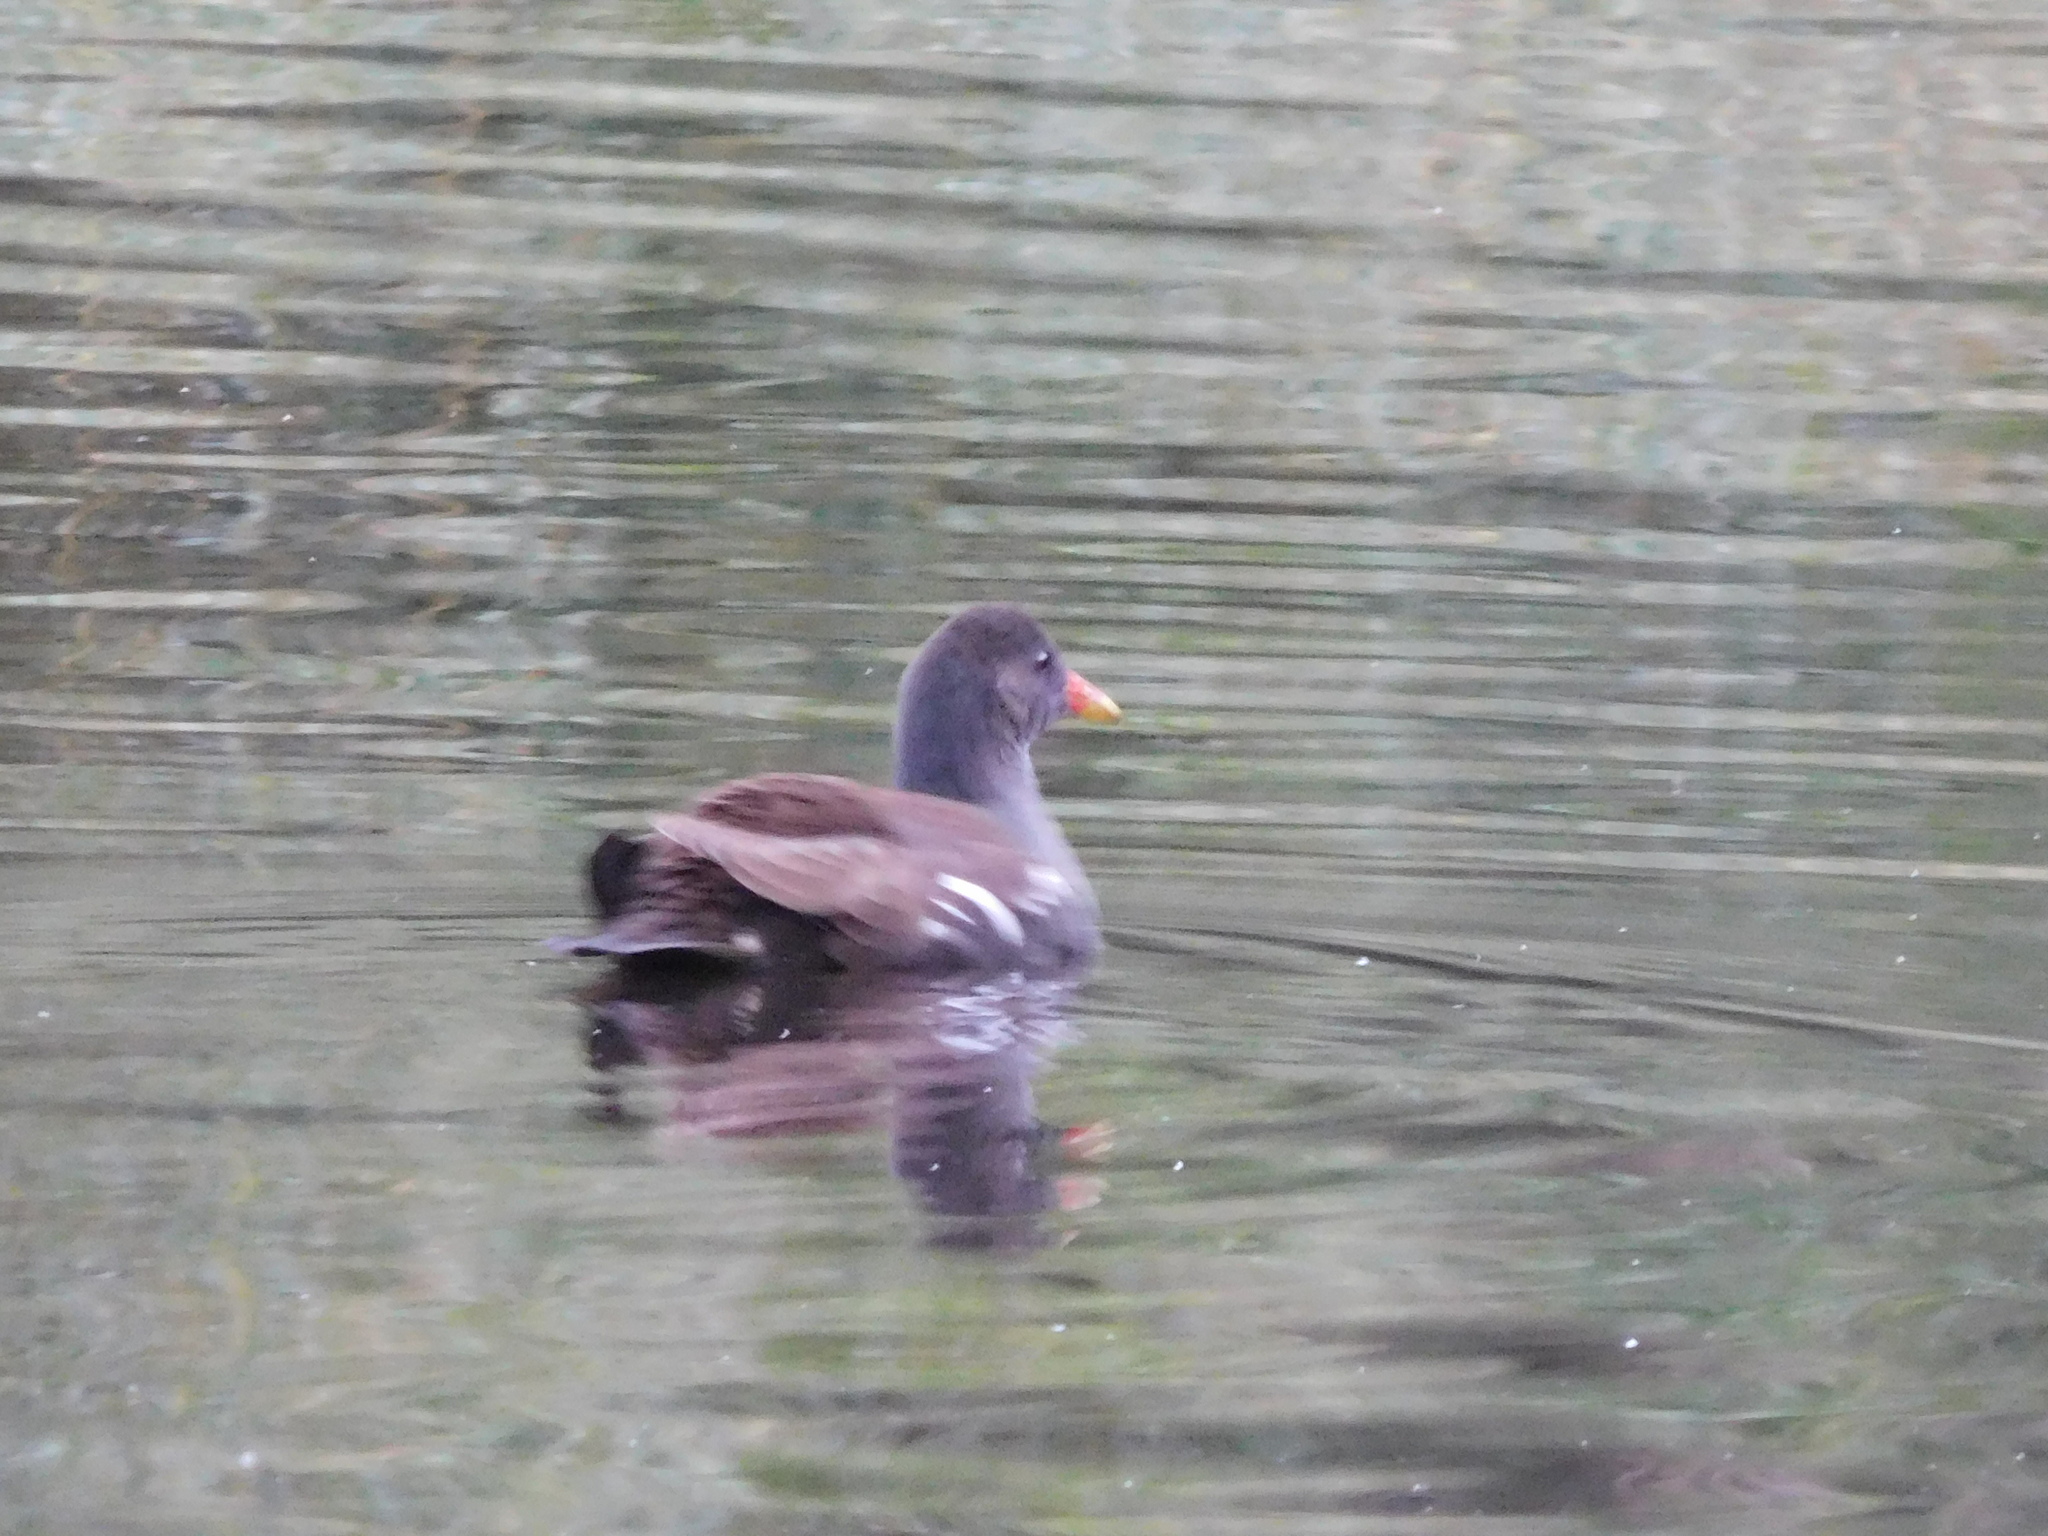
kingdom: Animalia
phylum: Chordata
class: Aves
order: Gruiformes
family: Rallidae
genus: Gallinula
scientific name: Gallinula chloropus
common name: Common moorhen
